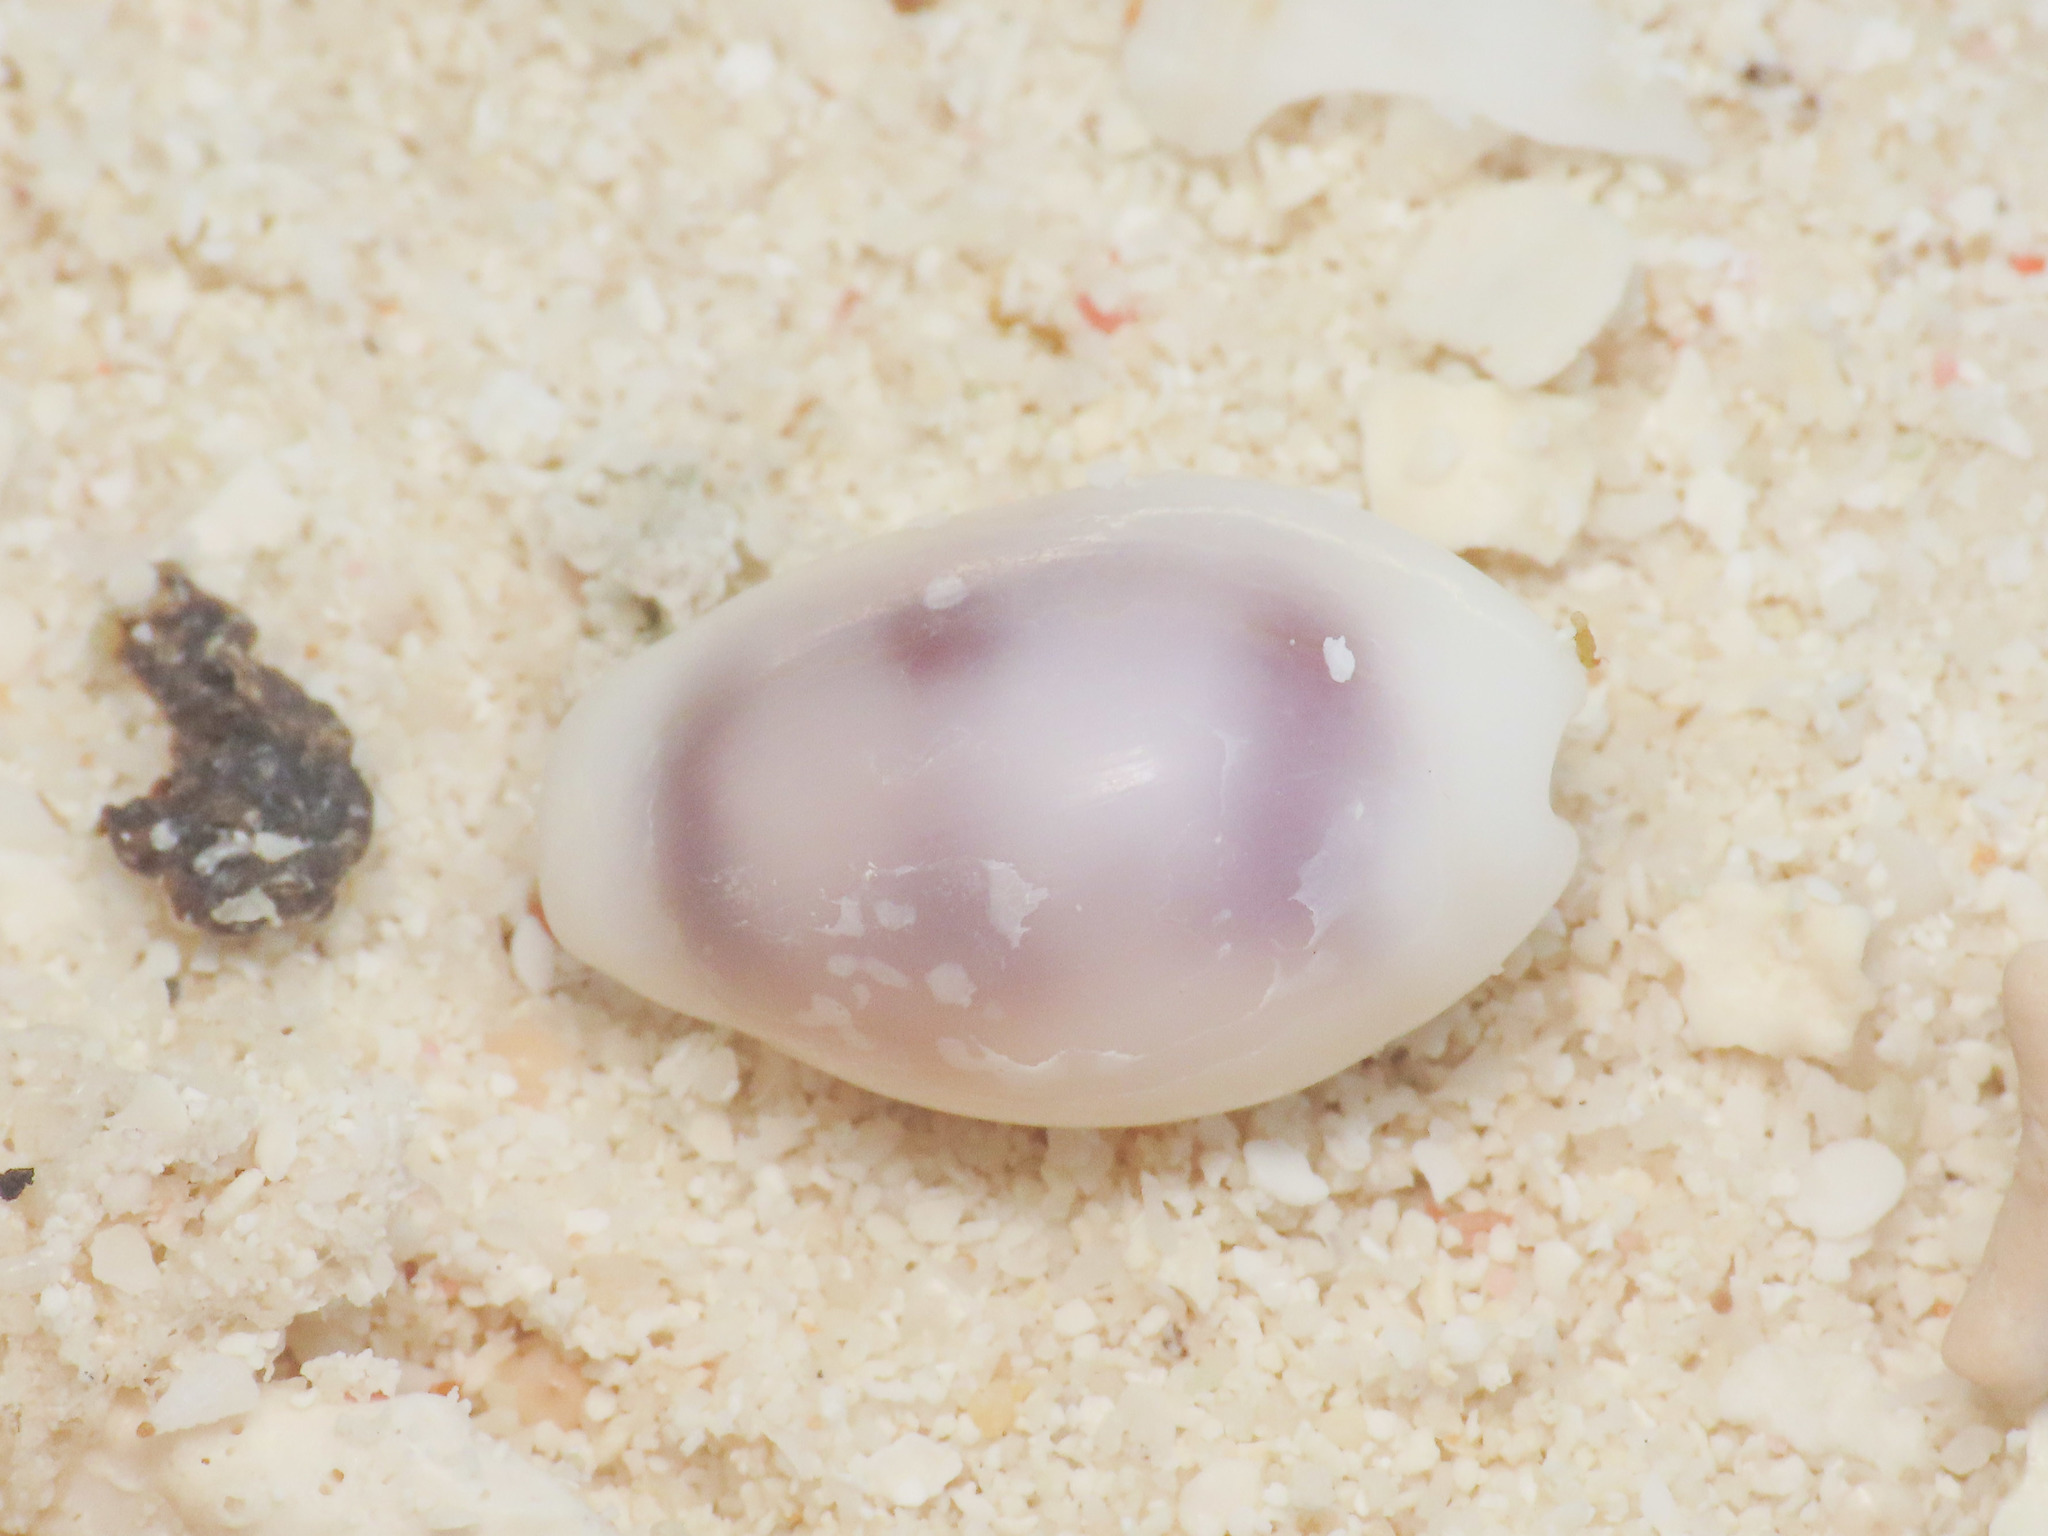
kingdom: Animalia
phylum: Mollusca
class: Gastropoda
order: Littorinimorpha
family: Cypraeidae
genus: Monetaria
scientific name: Monetaria moneta
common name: Money cowrie
